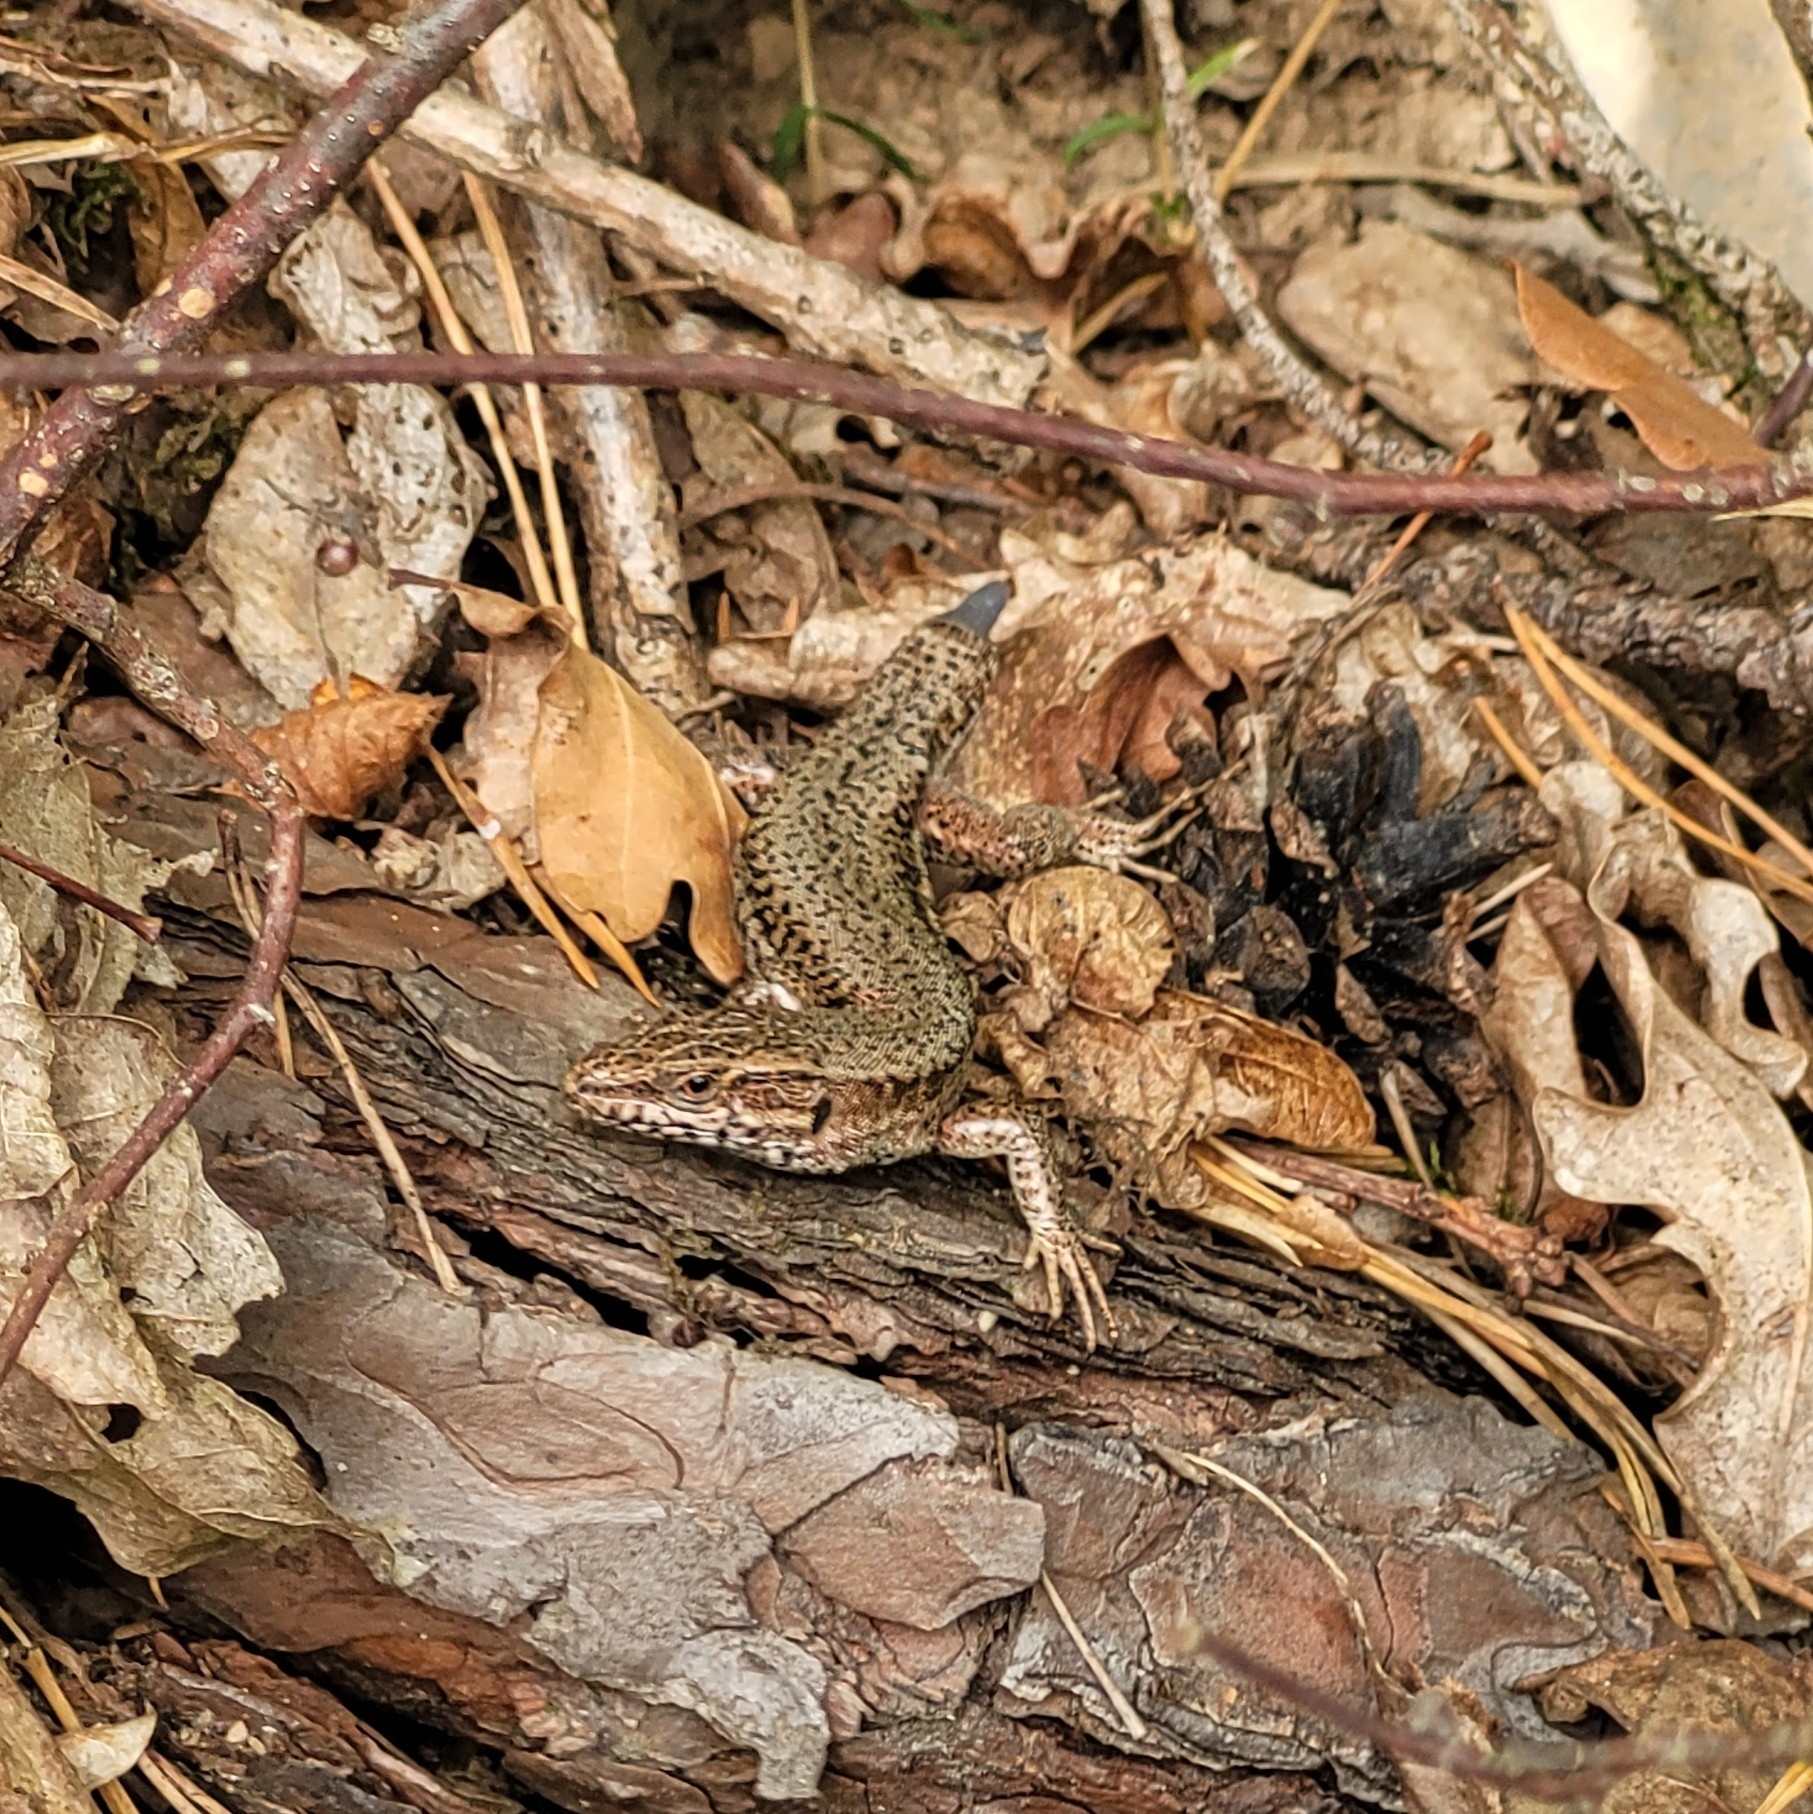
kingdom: Animalia
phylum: Chordata
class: Squamata
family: Lacertidae
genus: Podarcis
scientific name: Podarcis muralis
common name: Common wall lizard
